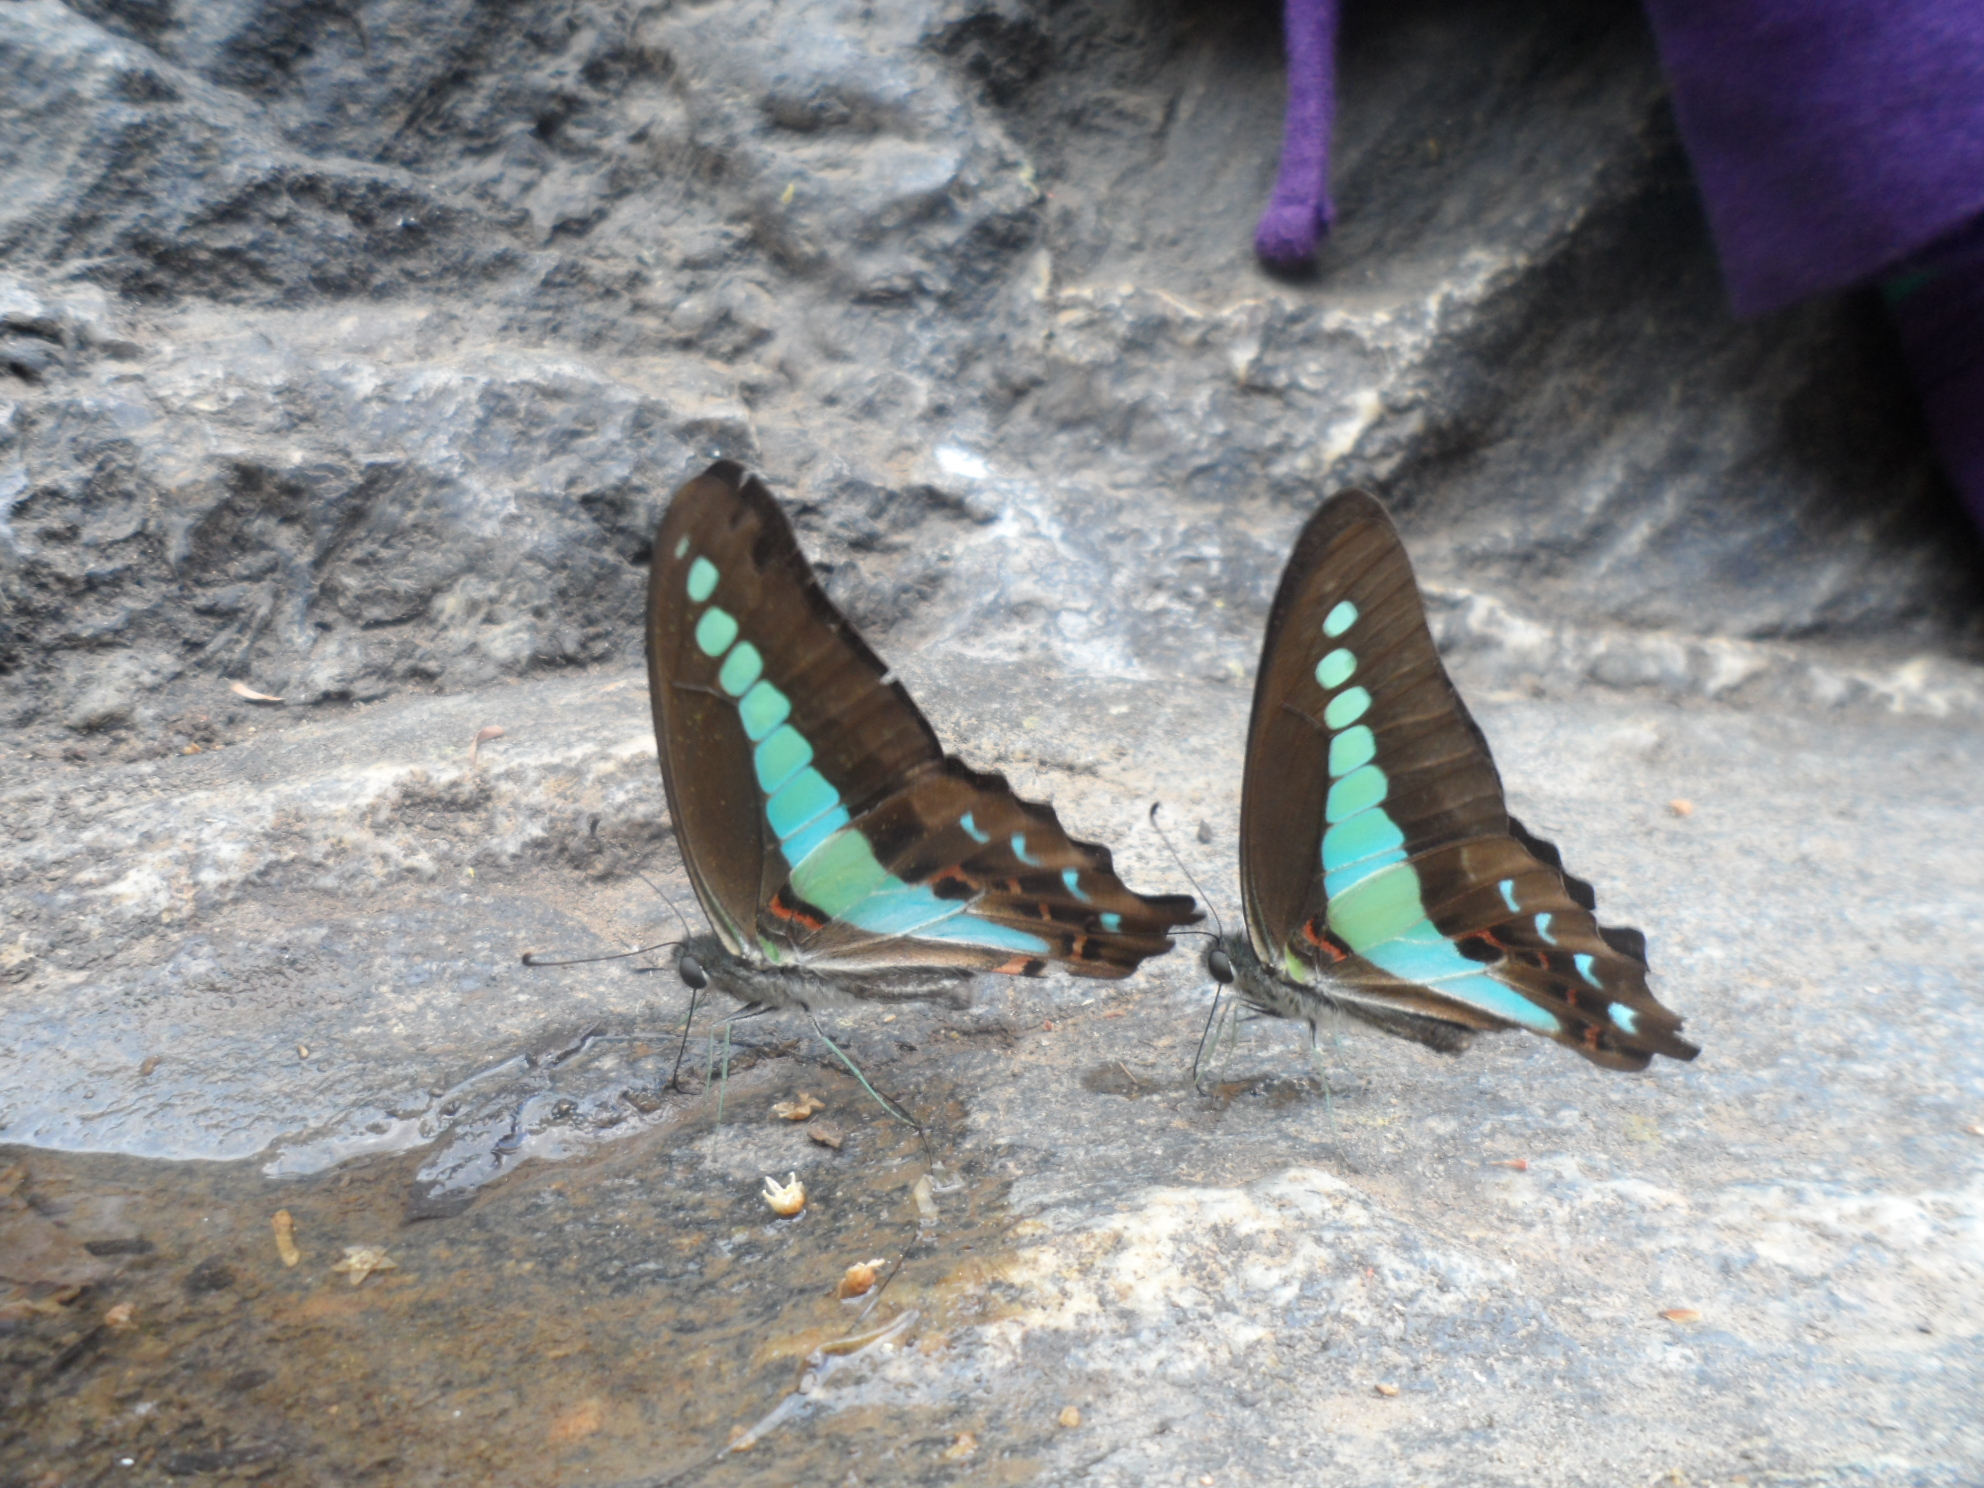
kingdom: Animalia
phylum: Arthropoda
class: Insecta
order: Lepidoptera
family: Papilionidae
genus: Graphium
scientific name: Graphium
